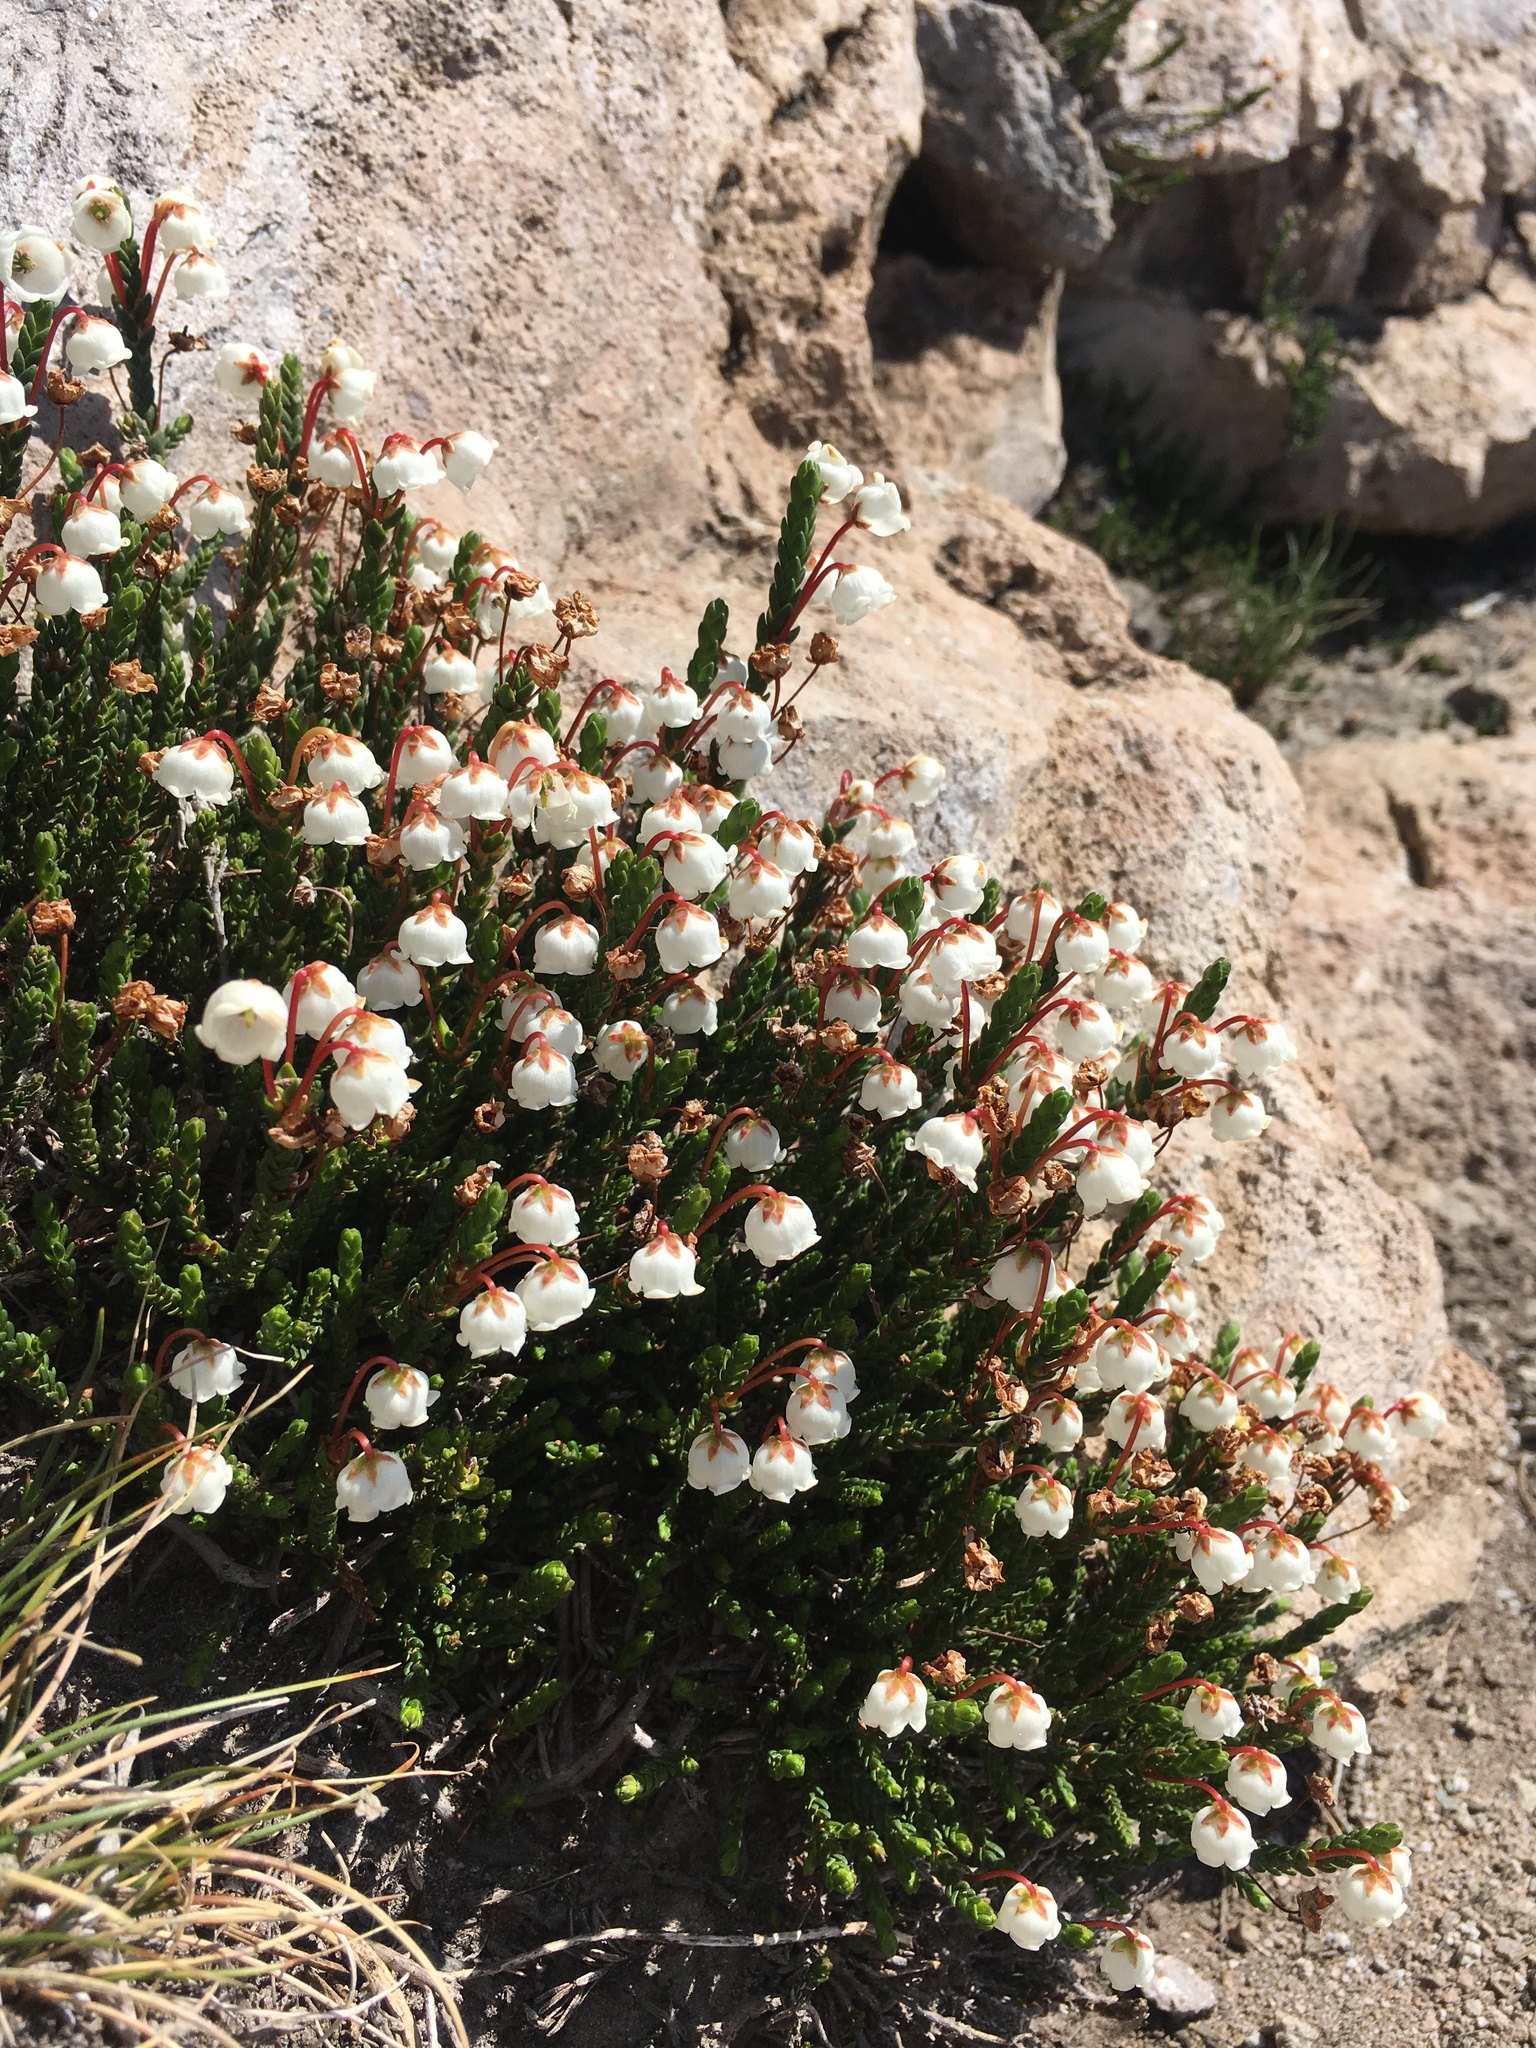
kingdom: Plantae
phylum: Tracheophyta
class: Magnoliopsida
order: Ericales
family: Ericaceae
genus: Cassiope
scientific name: Cassiope mertensiana
